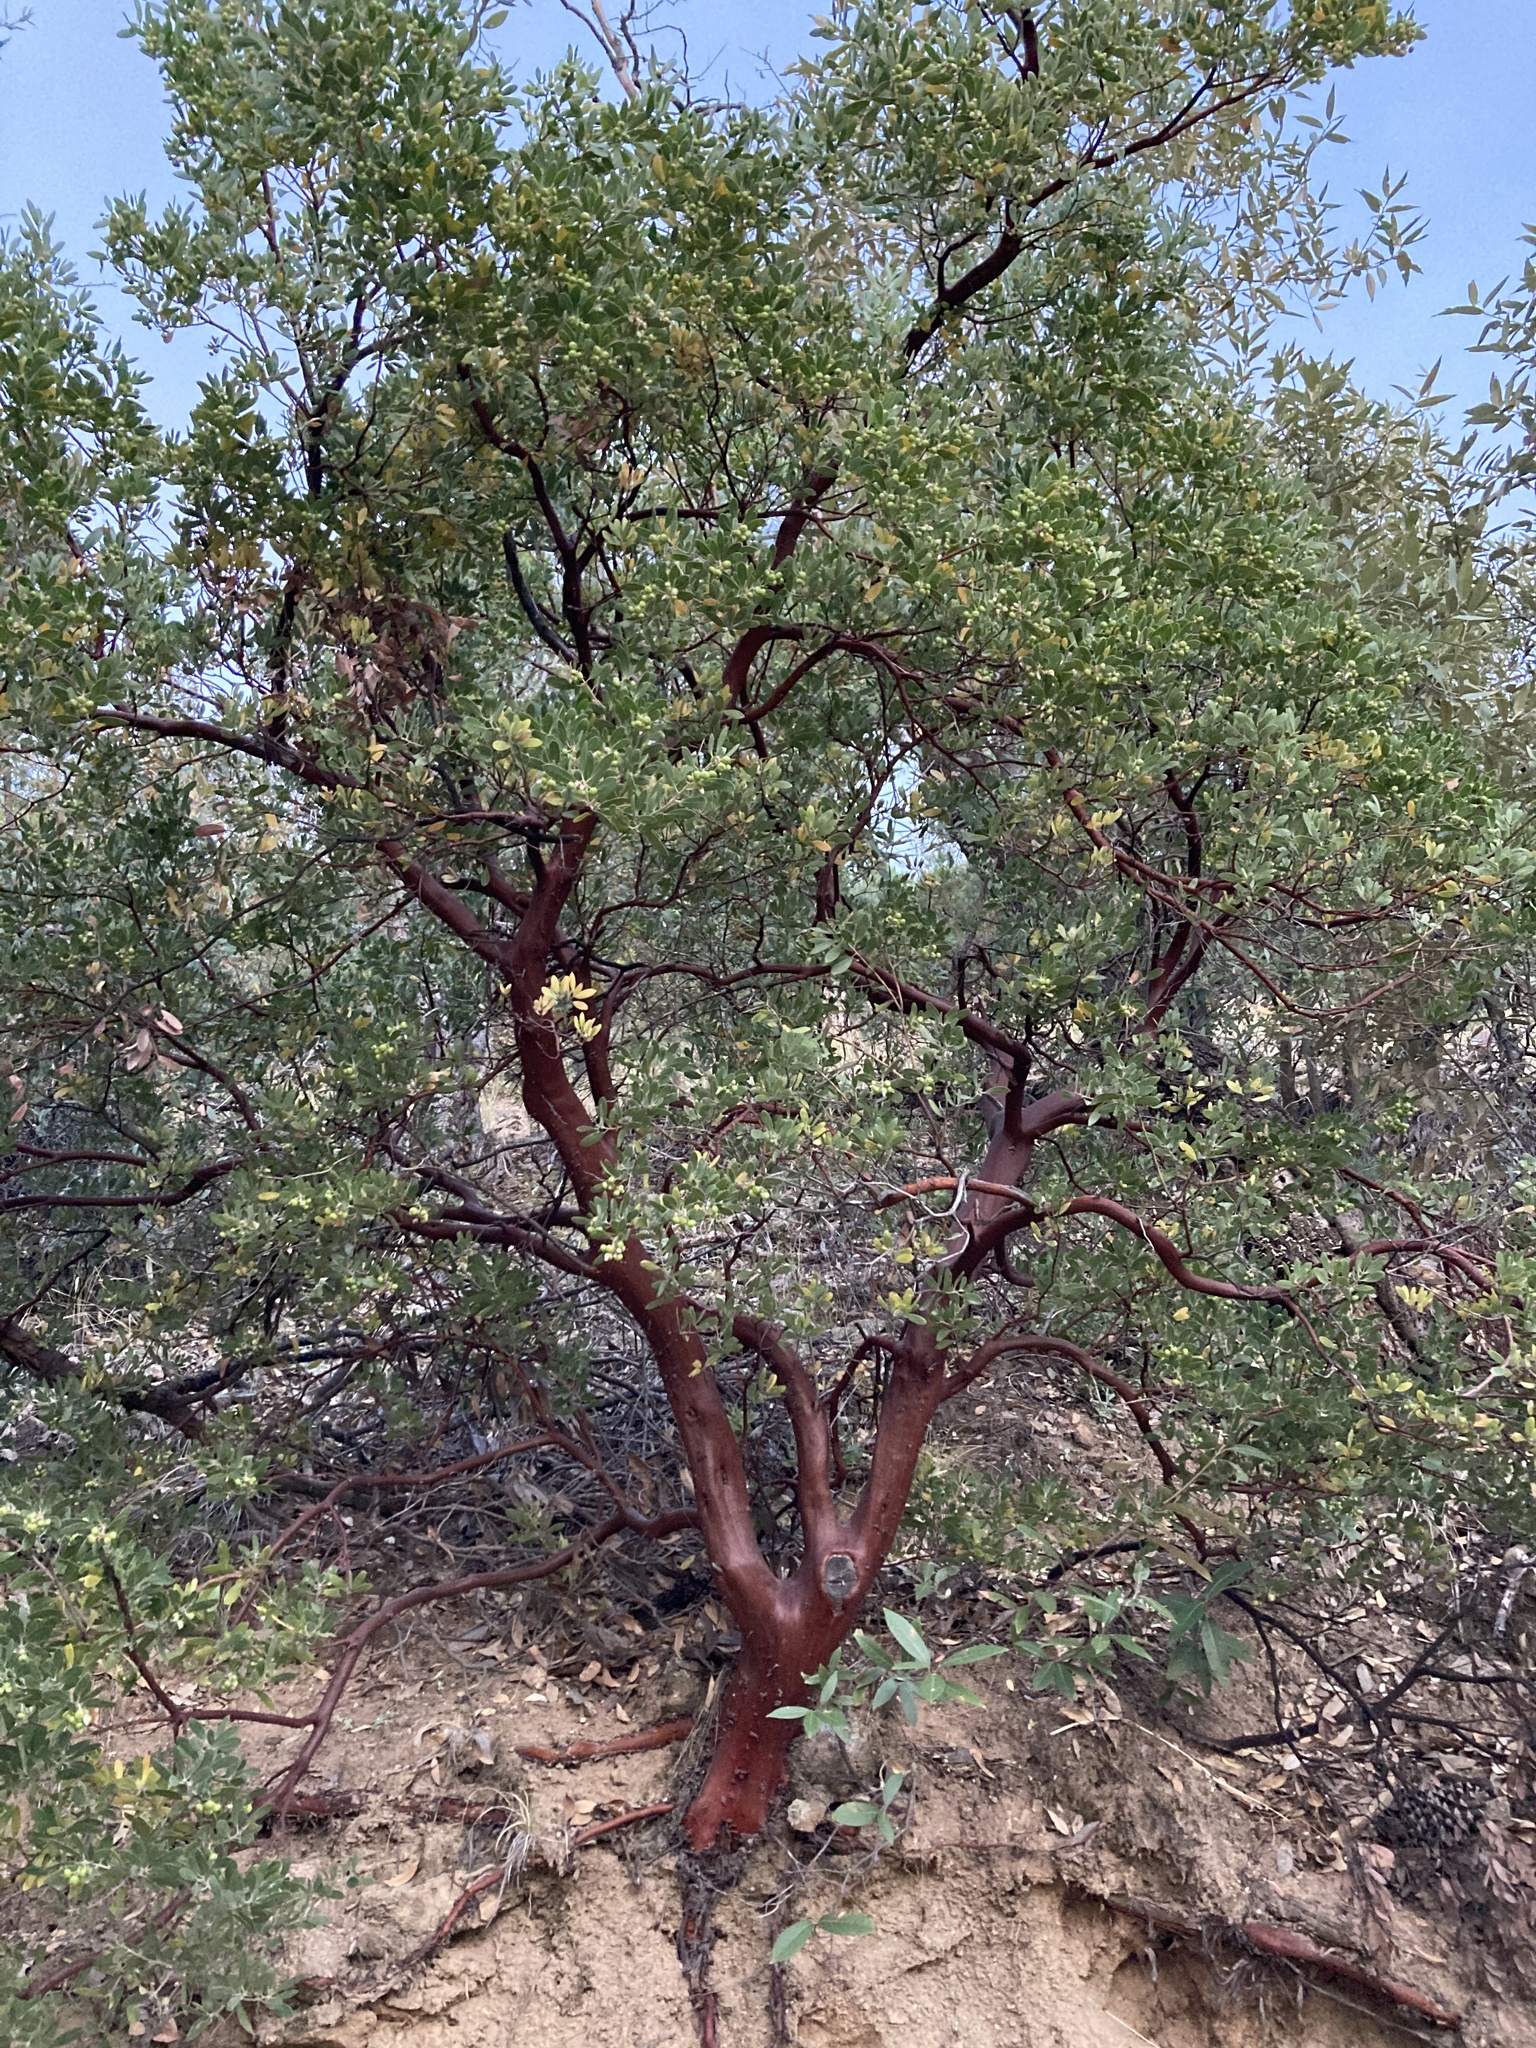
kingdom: Plantae
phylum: Tracheophyta
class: Magnoliopsida
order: Ericales
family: Ericaceae
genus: Arctostaphylos
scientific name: Arctostaphylos pungens
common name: Mexican manzanita
